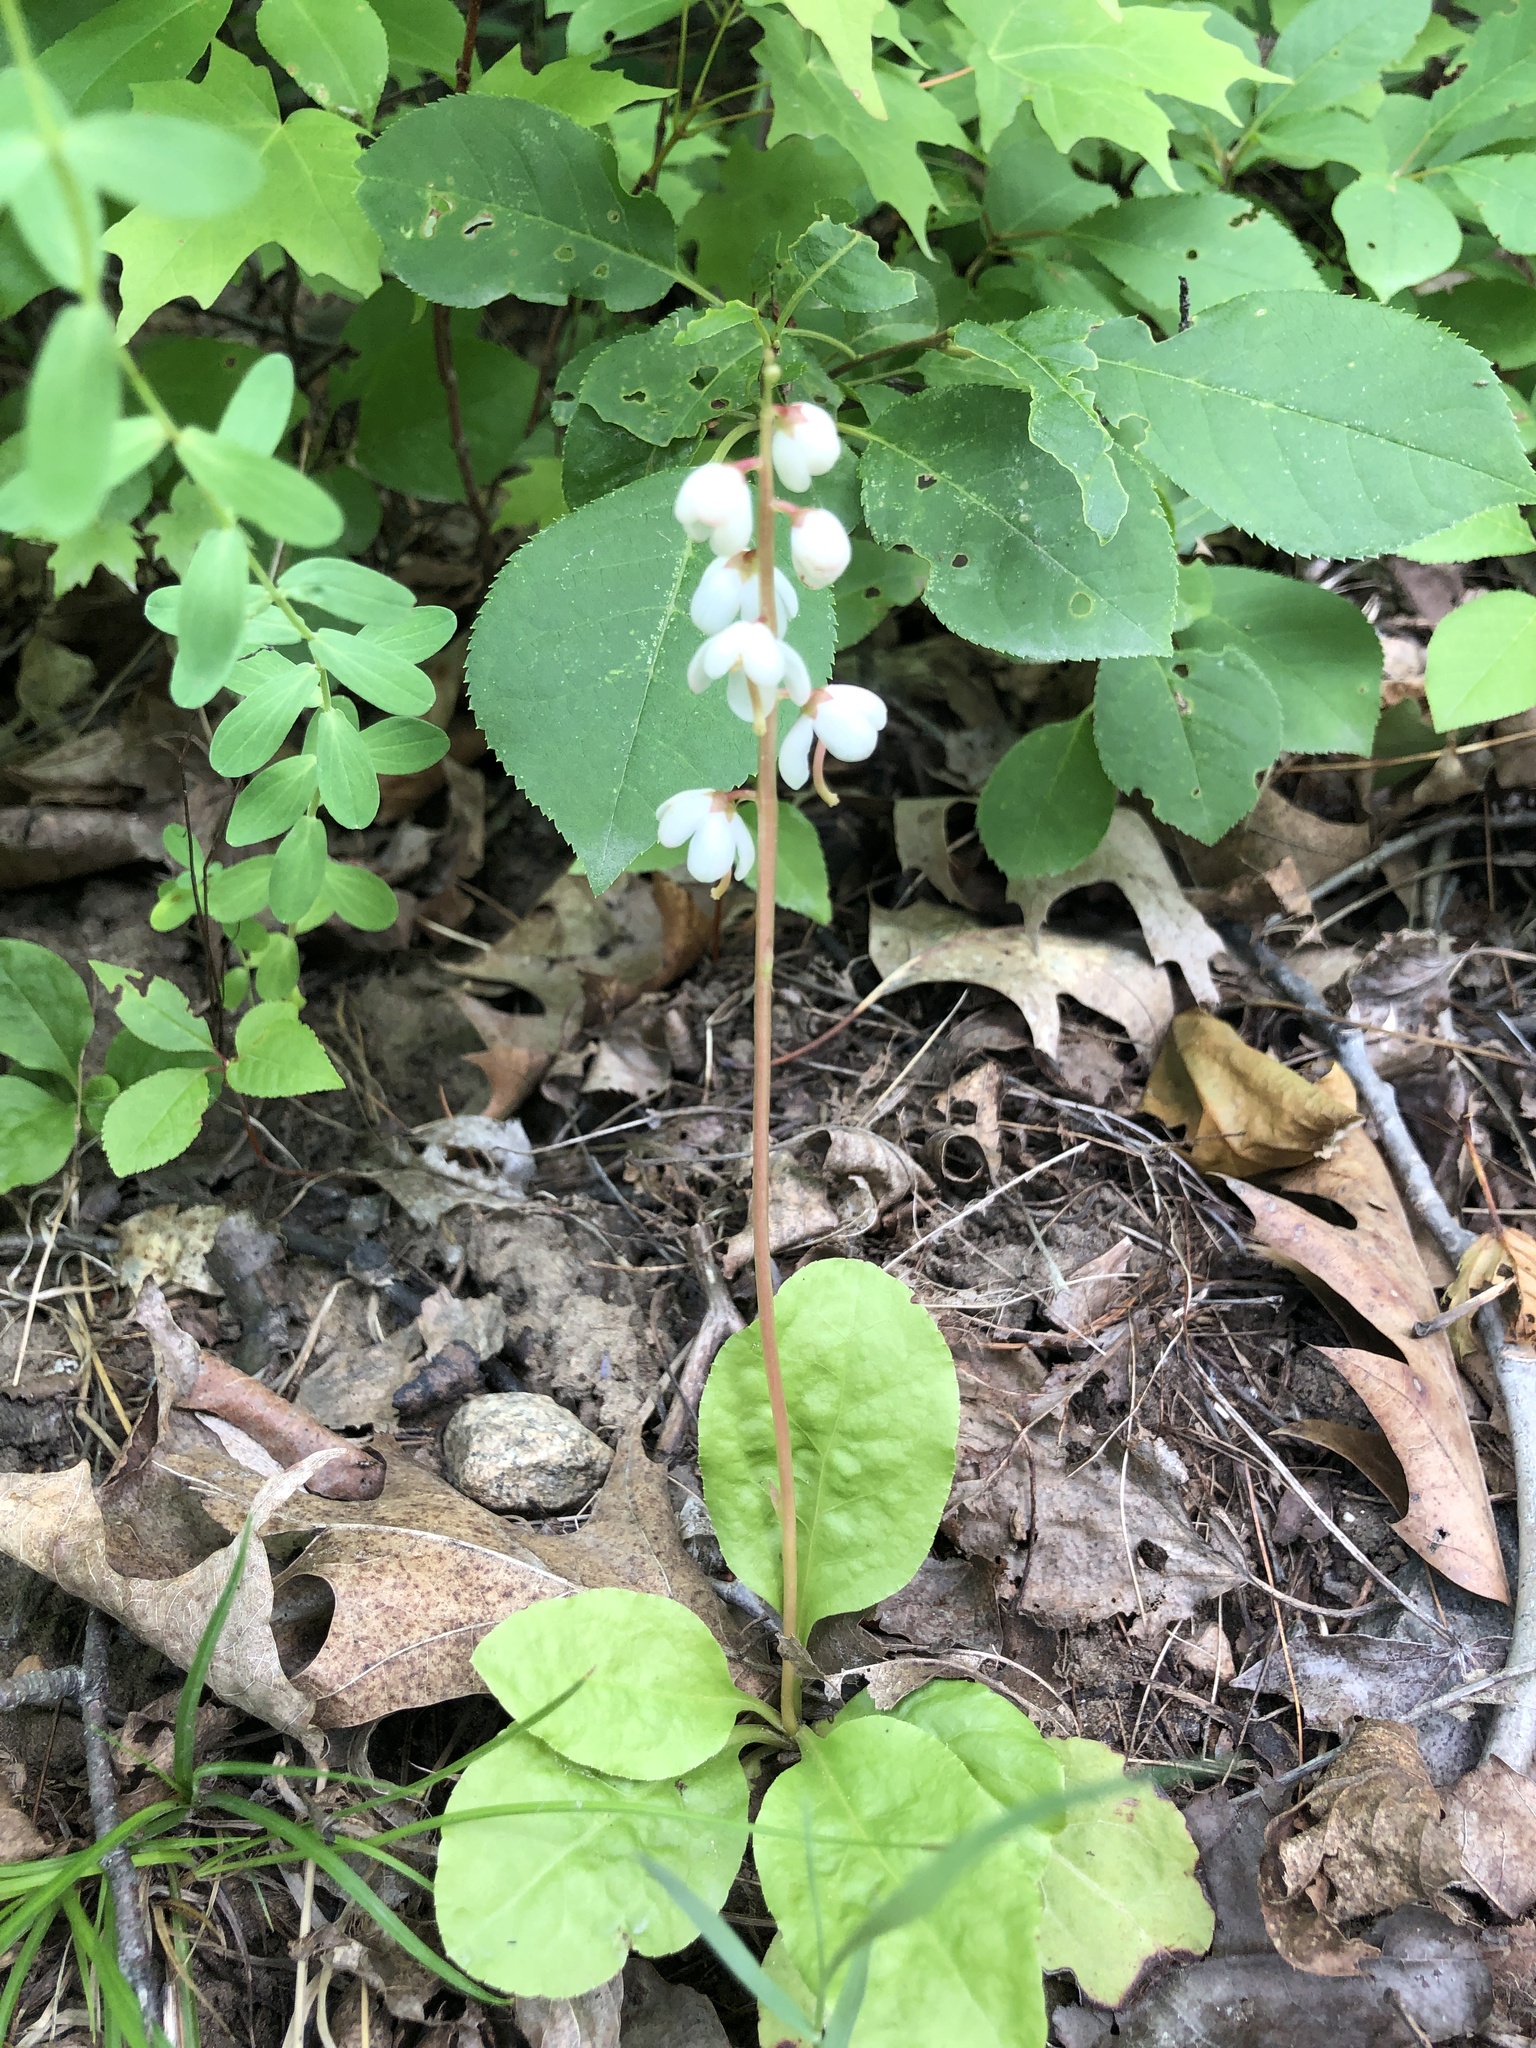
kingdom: Plantae
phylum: Tracheophyta
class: Magnoliopsida
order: Ericales
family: Ericaceae
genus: Pyrola
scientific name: Pyrola elliptica
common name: Shinleaf
